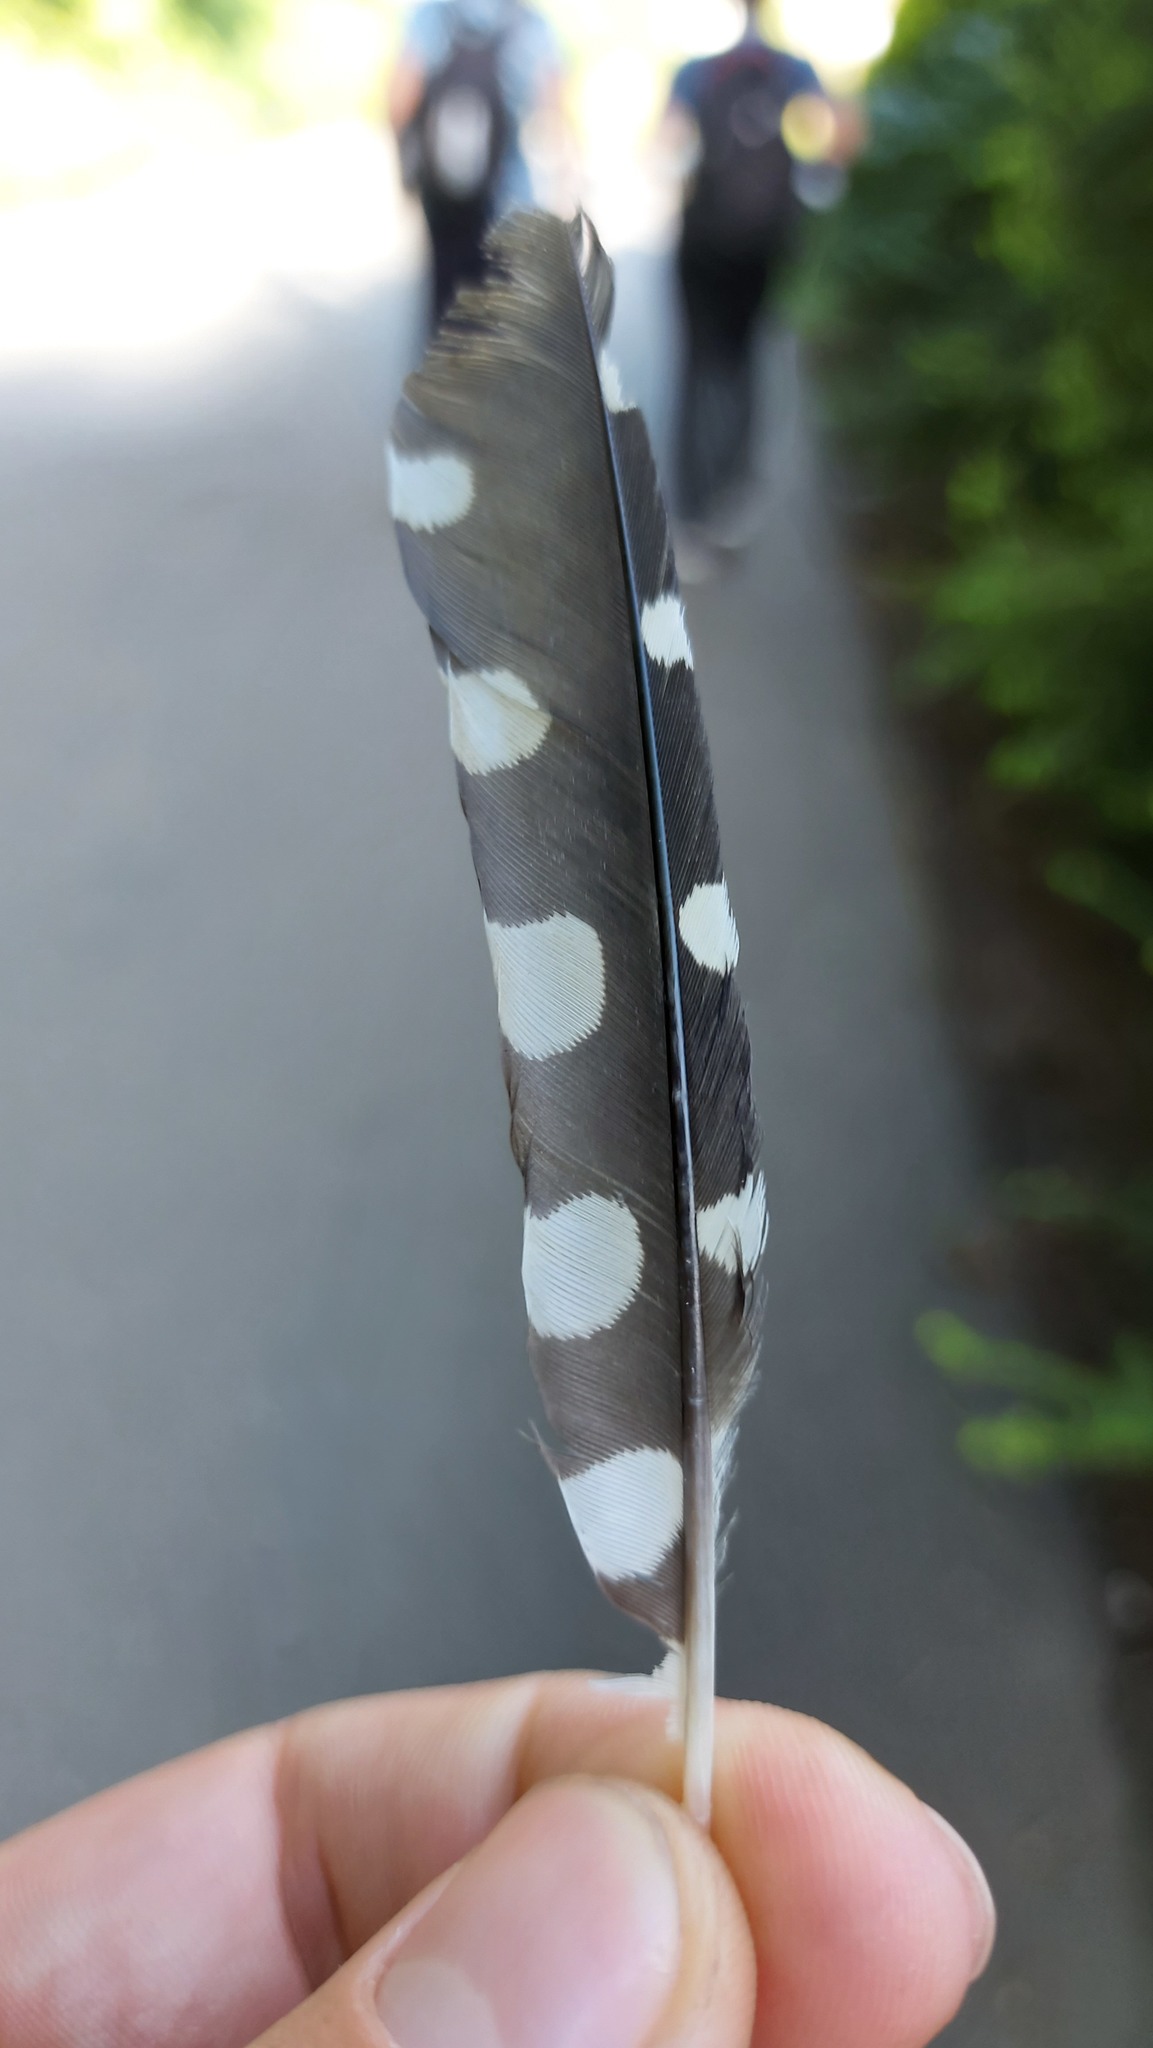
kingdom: Animalia
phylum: Chordata
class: Aves
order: Piciformes
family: Picidae
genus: Dendrocopos
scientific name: Dendrocopos major
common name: Great spotted woodpecker
